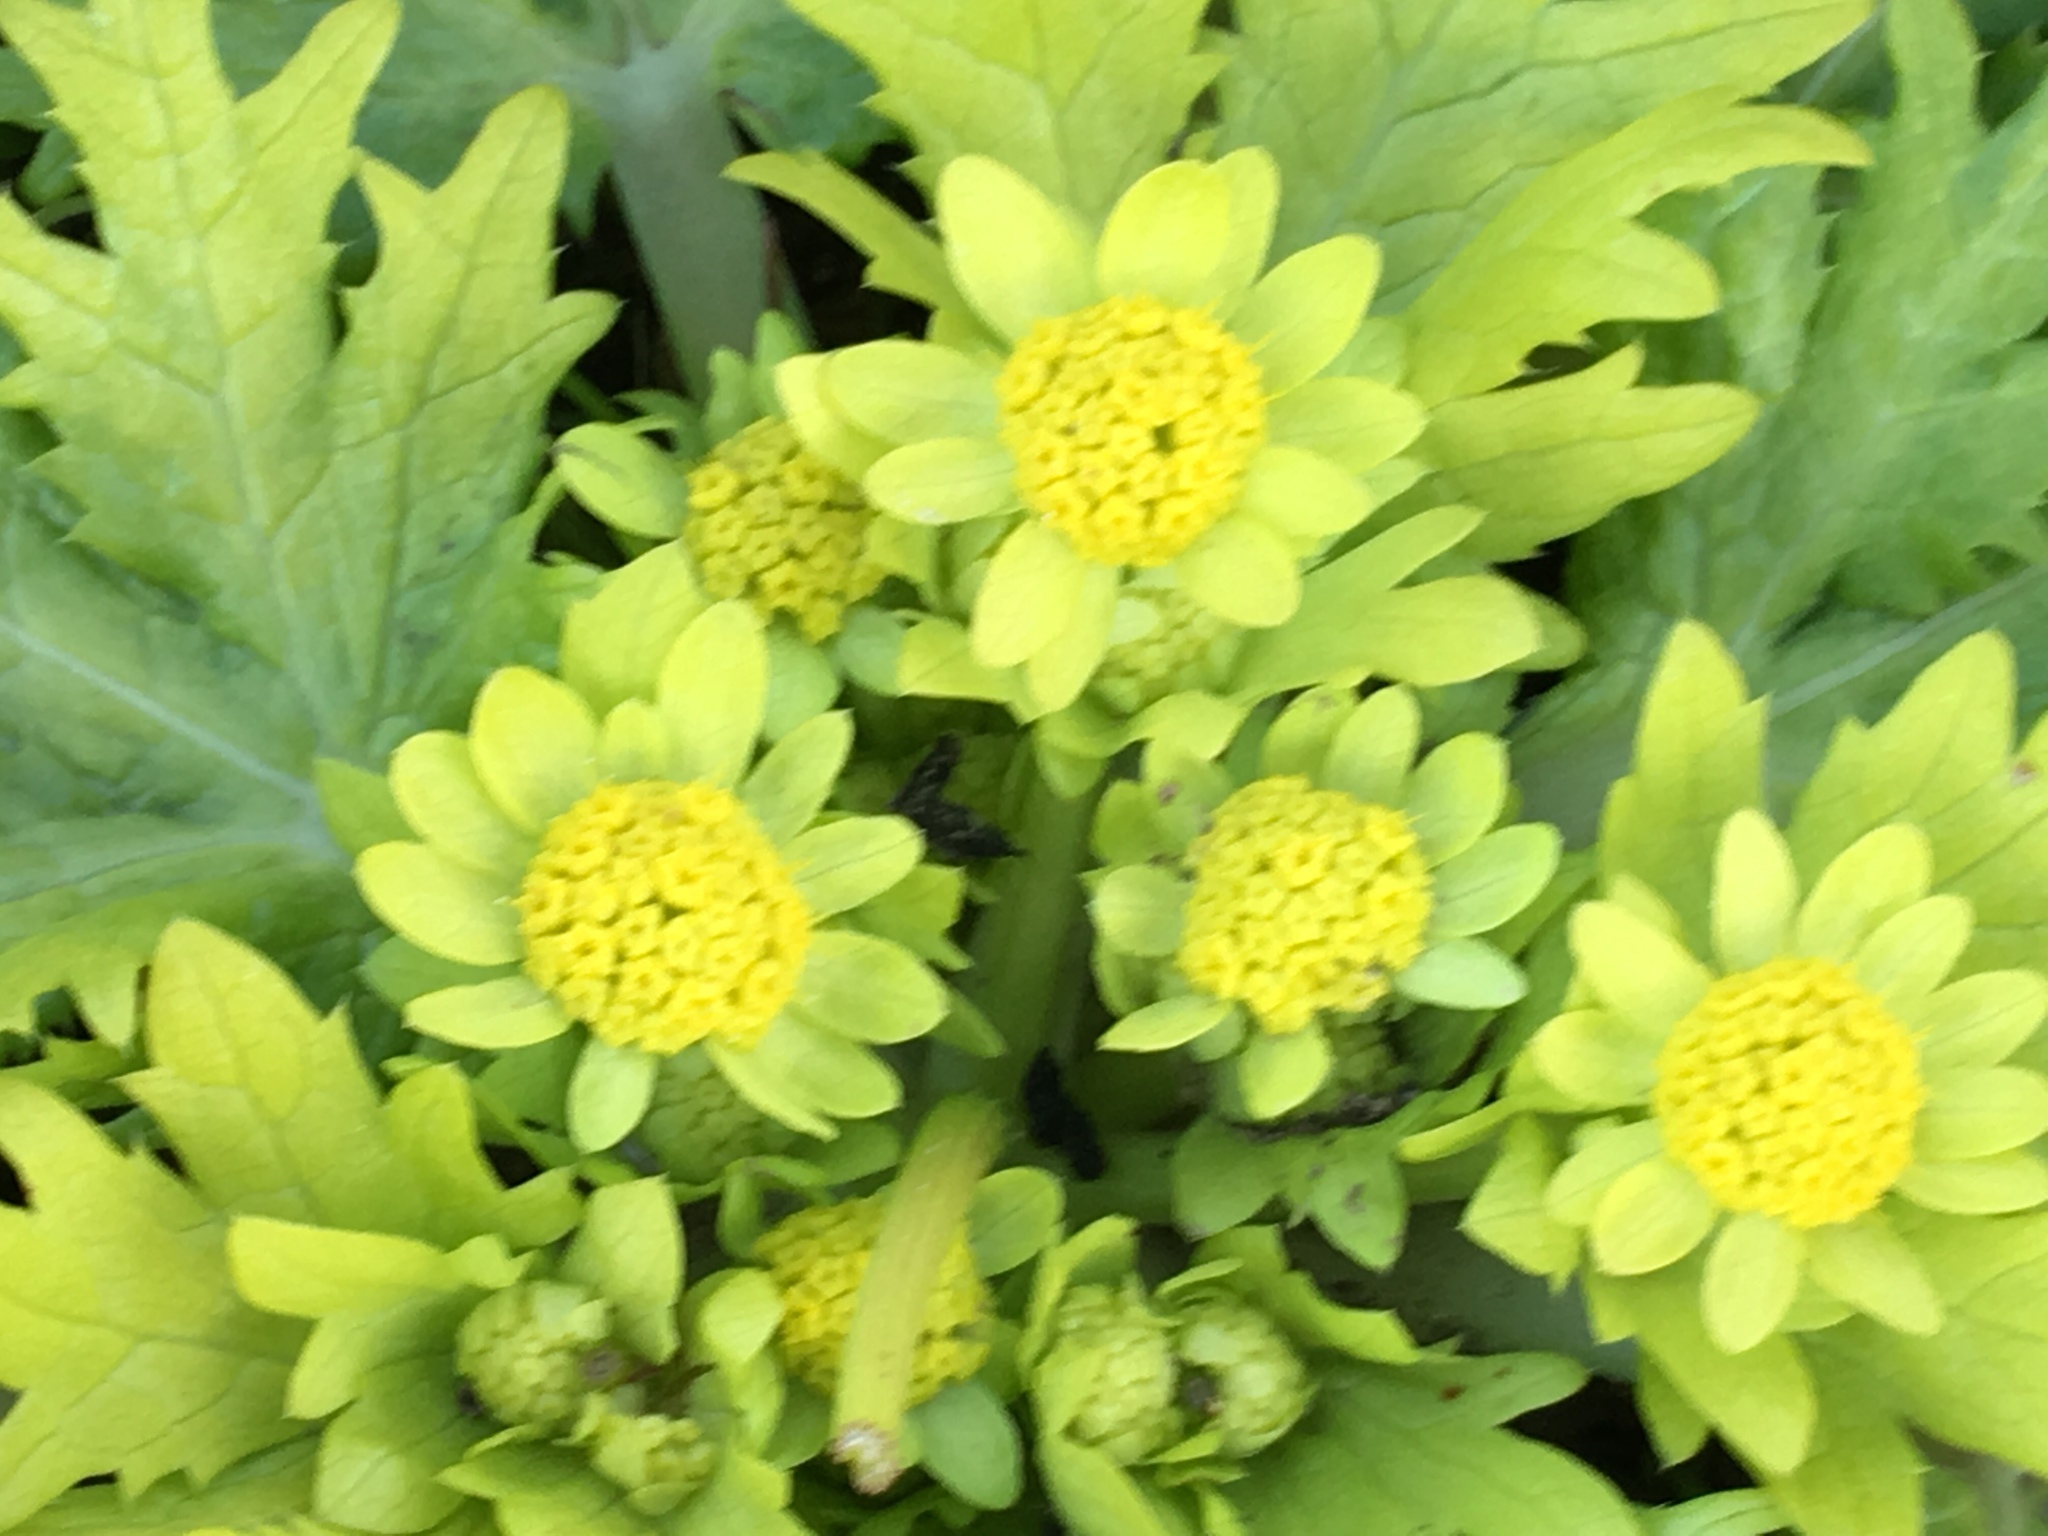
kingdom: Plantae
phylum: Tracheophyta
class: Magnoliopsida
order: Apiales
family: Apiaceae
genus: Sanicula
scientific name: Sanicula arctopoides
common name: Footsteps-of-spring
